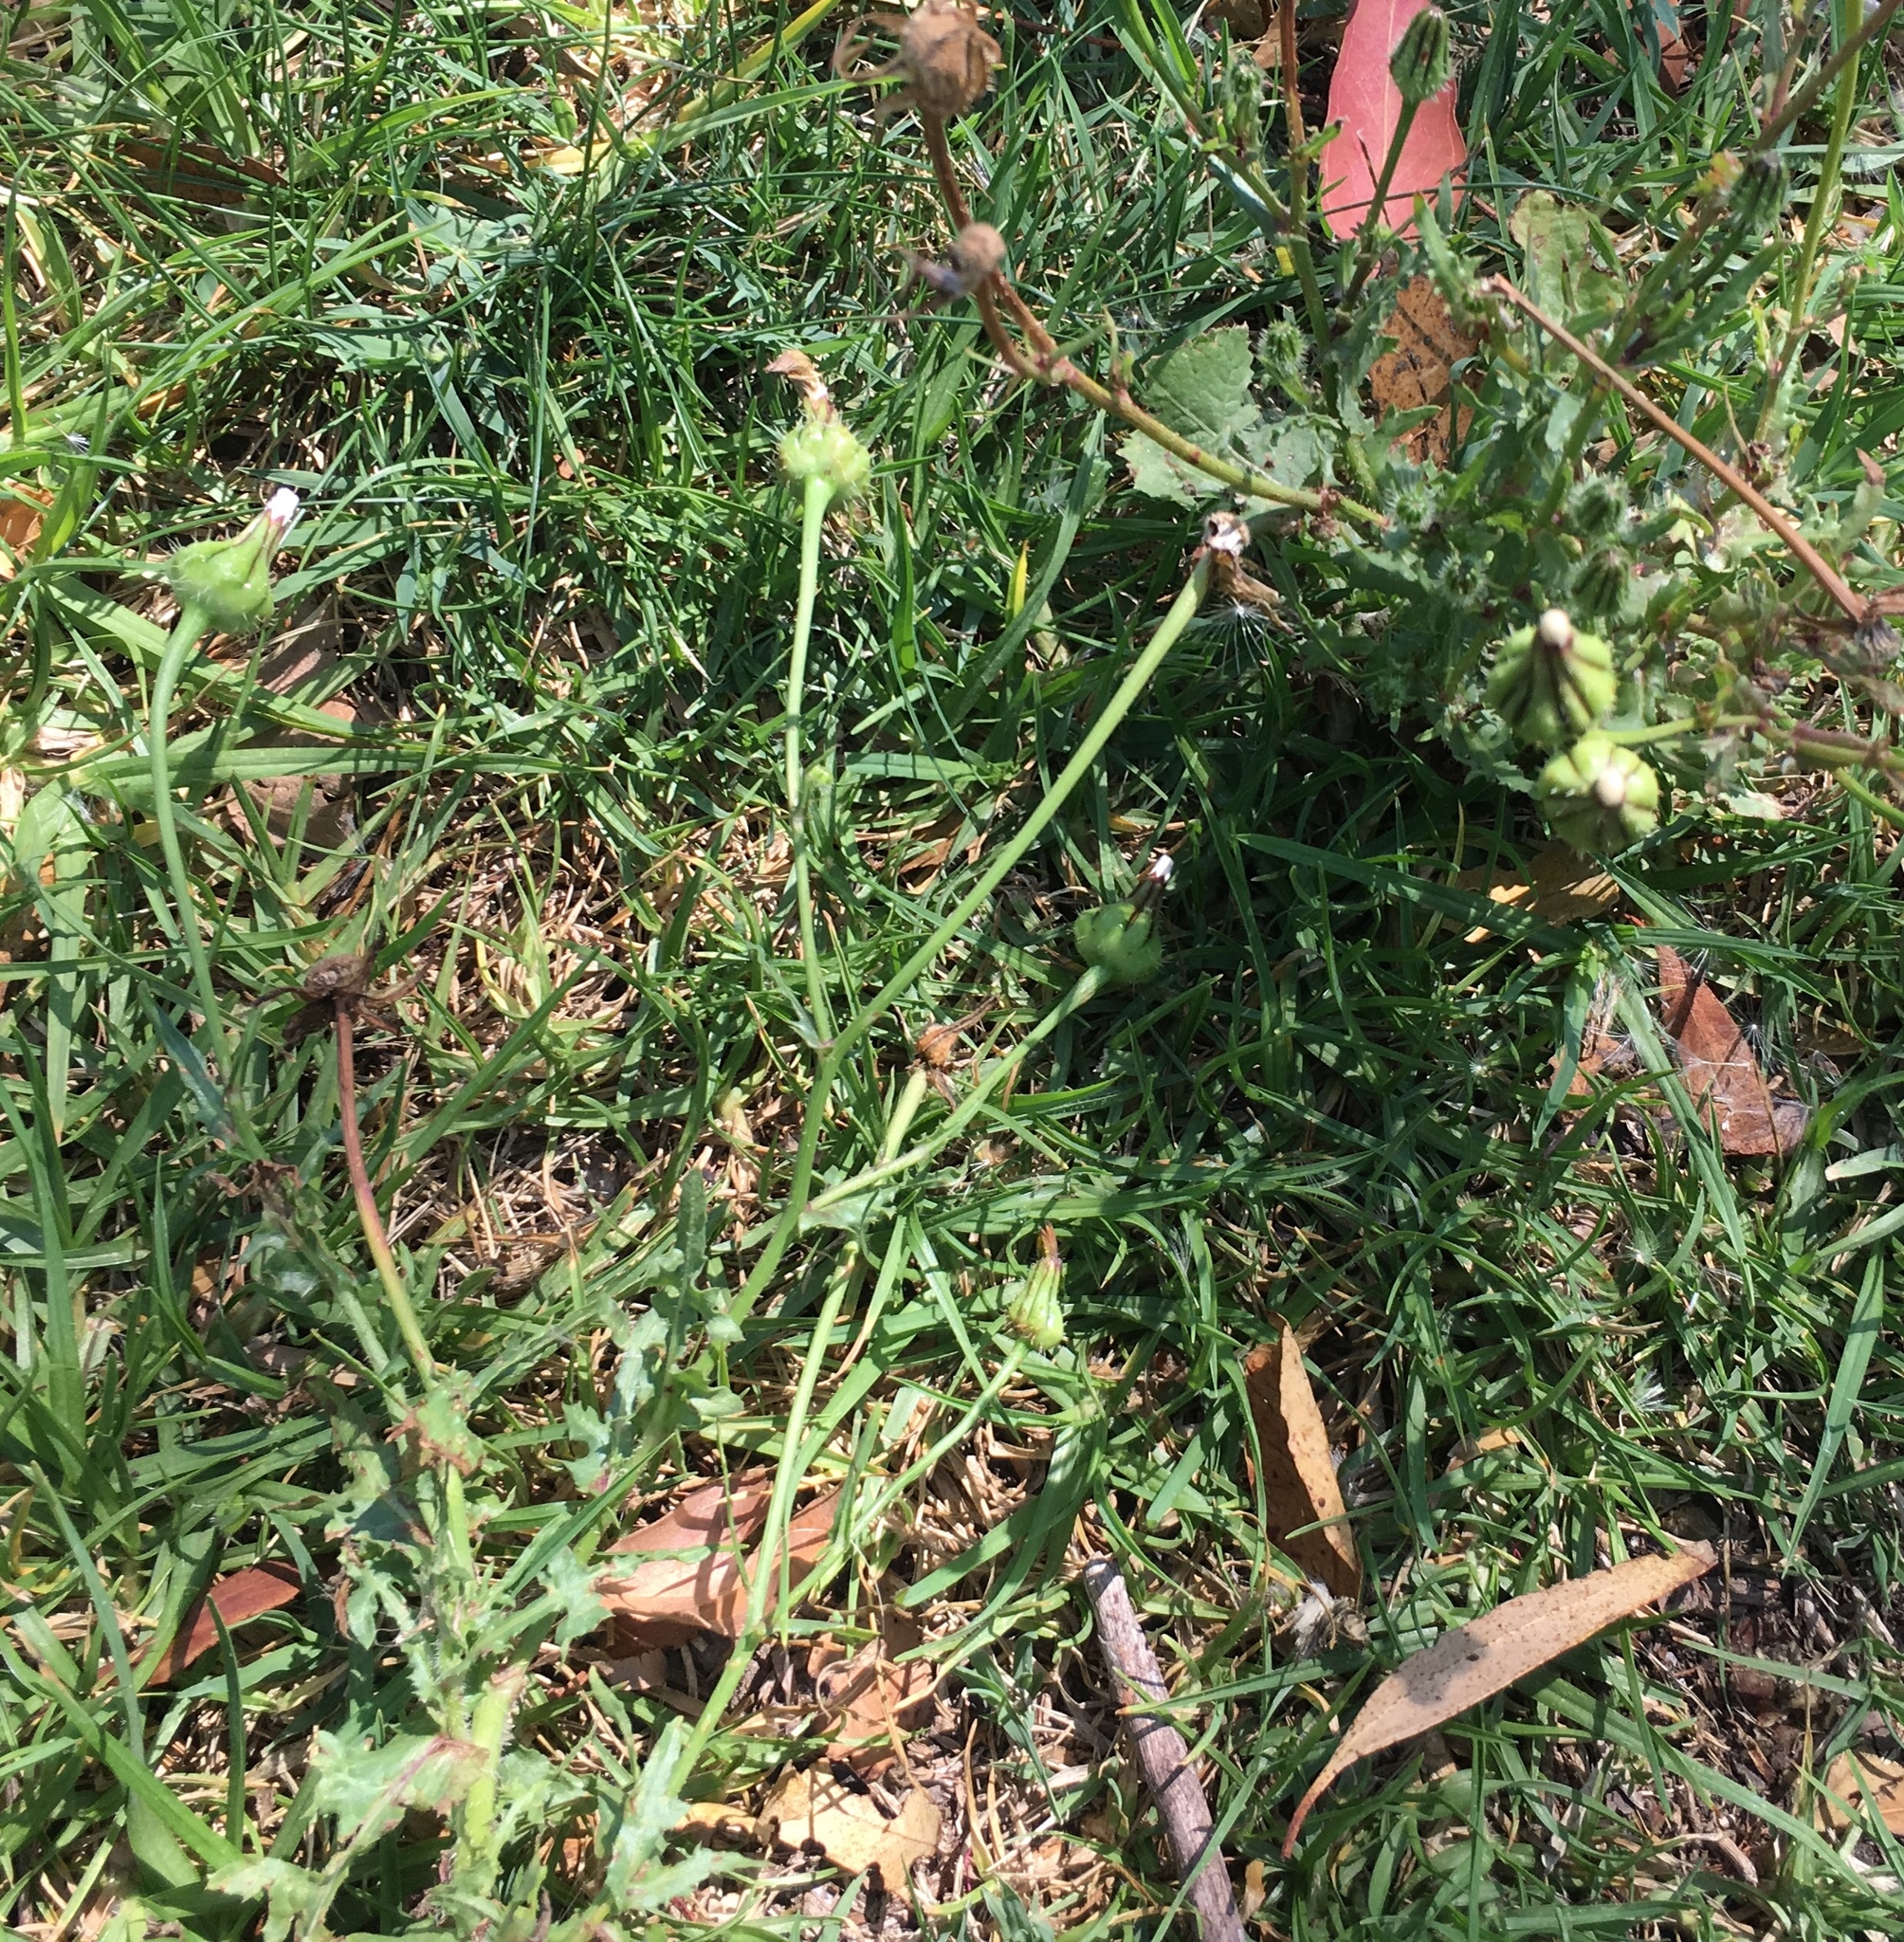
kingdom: Plantae
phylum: Tracheophyta
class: Magnoliopsida
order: Asterales
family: Asteraceae
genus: Urospermum
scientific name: Urospermum picroides
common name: False hawkbit
